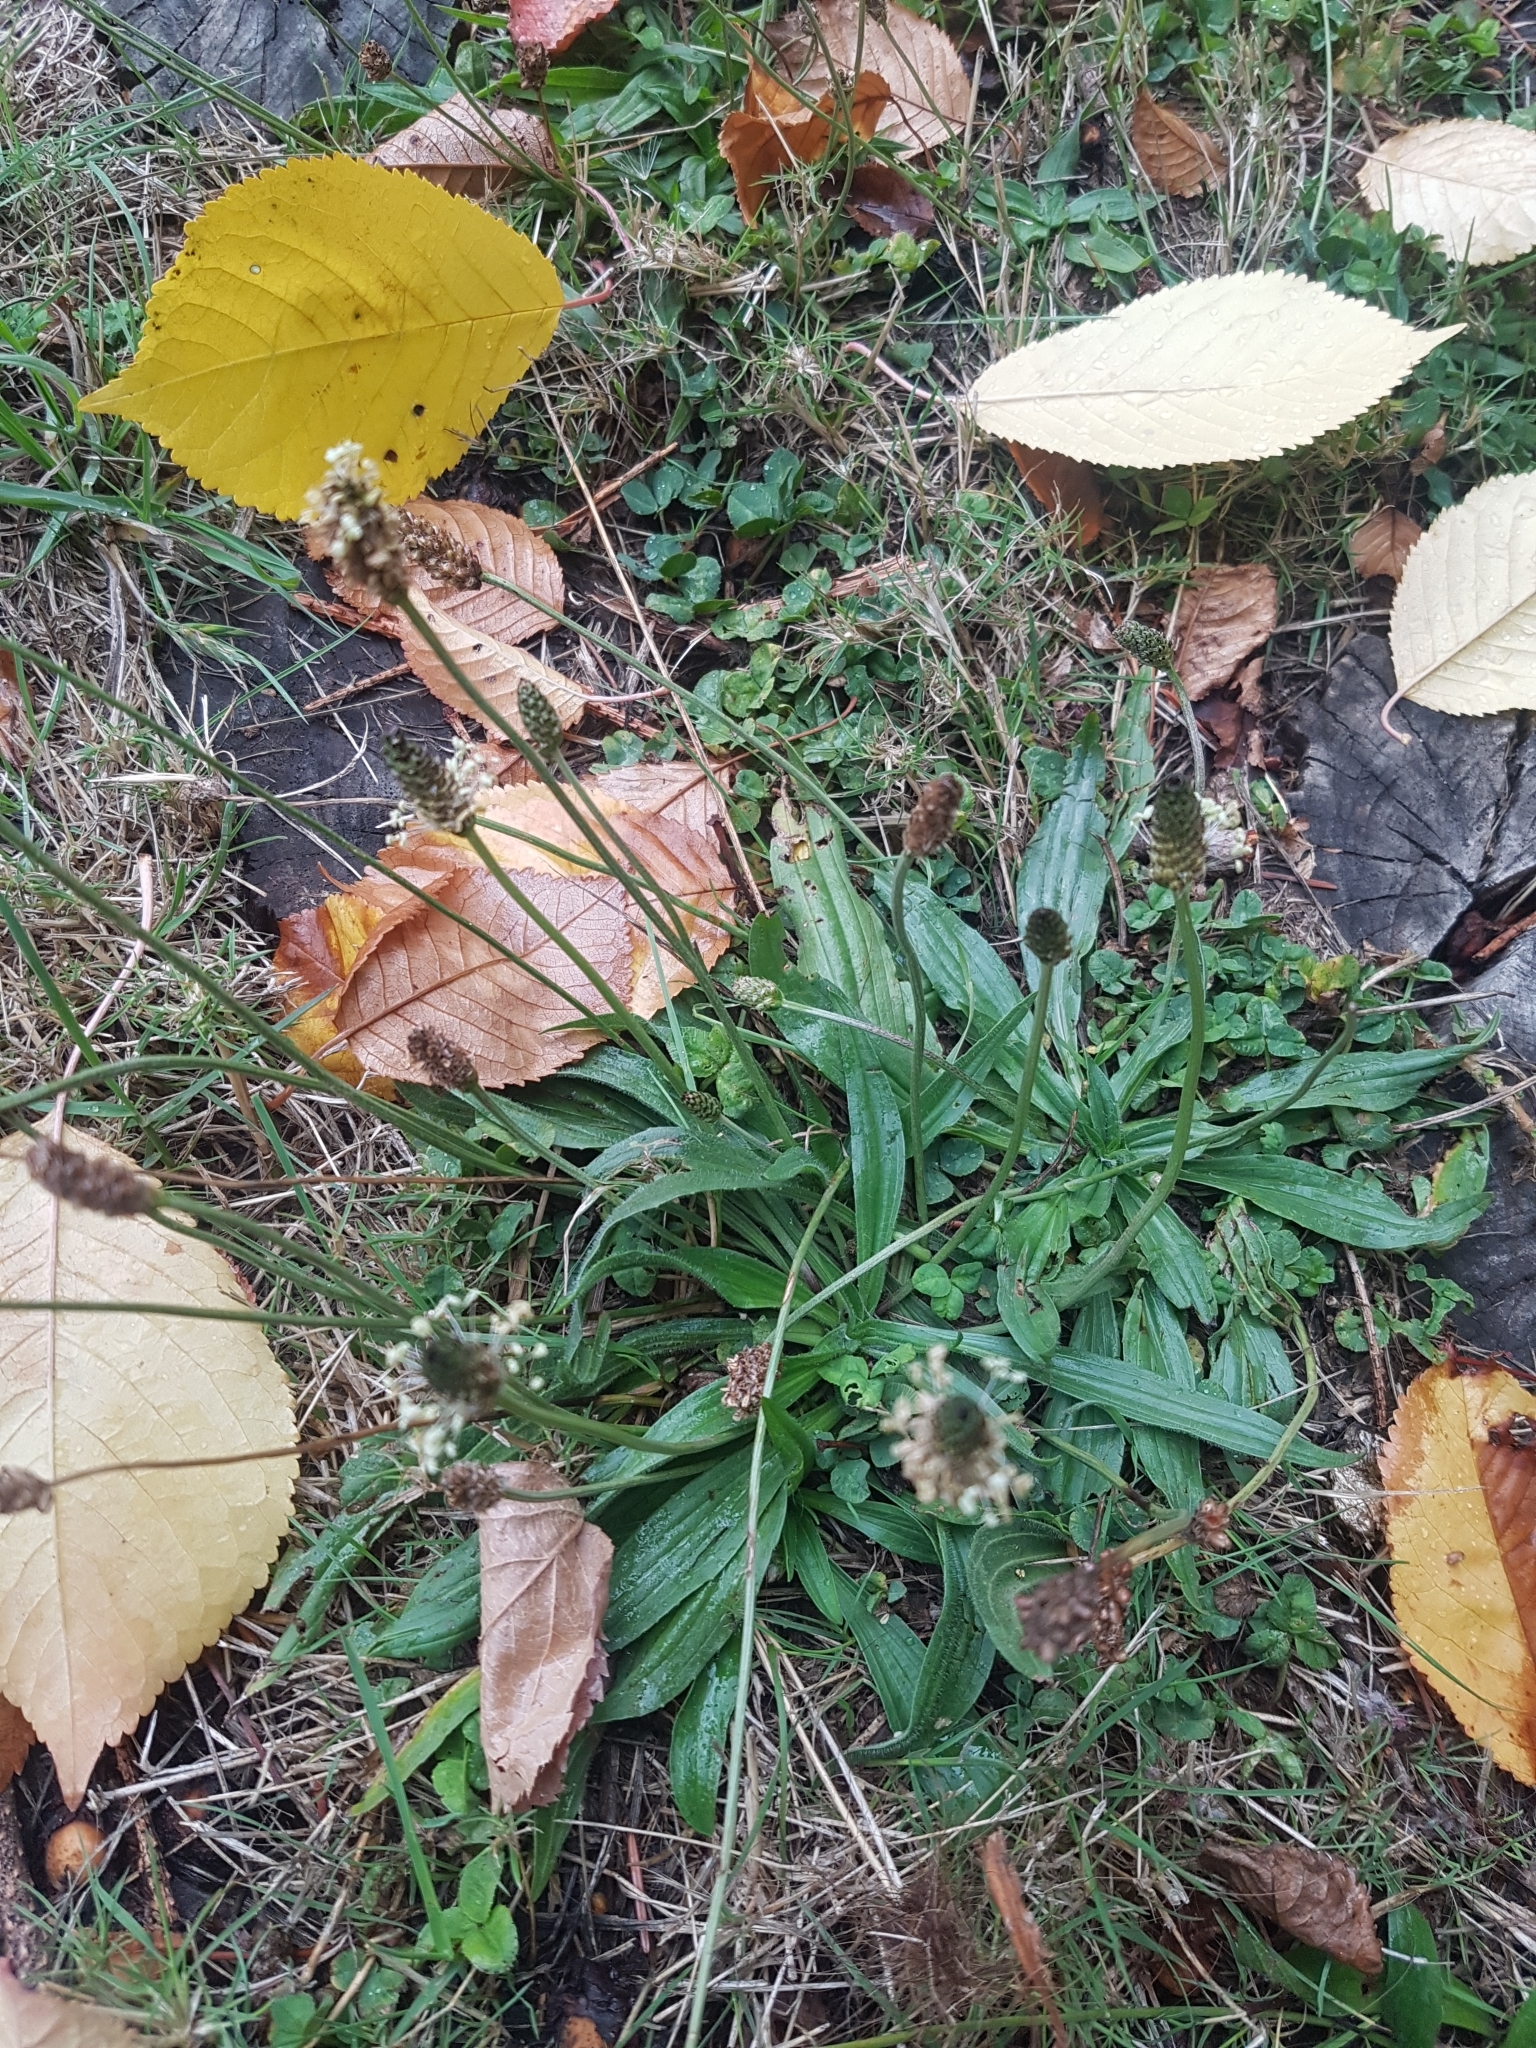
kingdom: Plantae
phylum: Tracheophyta
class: Magnoliopsida
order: Lamiales
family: Plantaginaceae
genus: Plantago
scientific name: Plantago lanceolata
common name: Ribwort plantain
